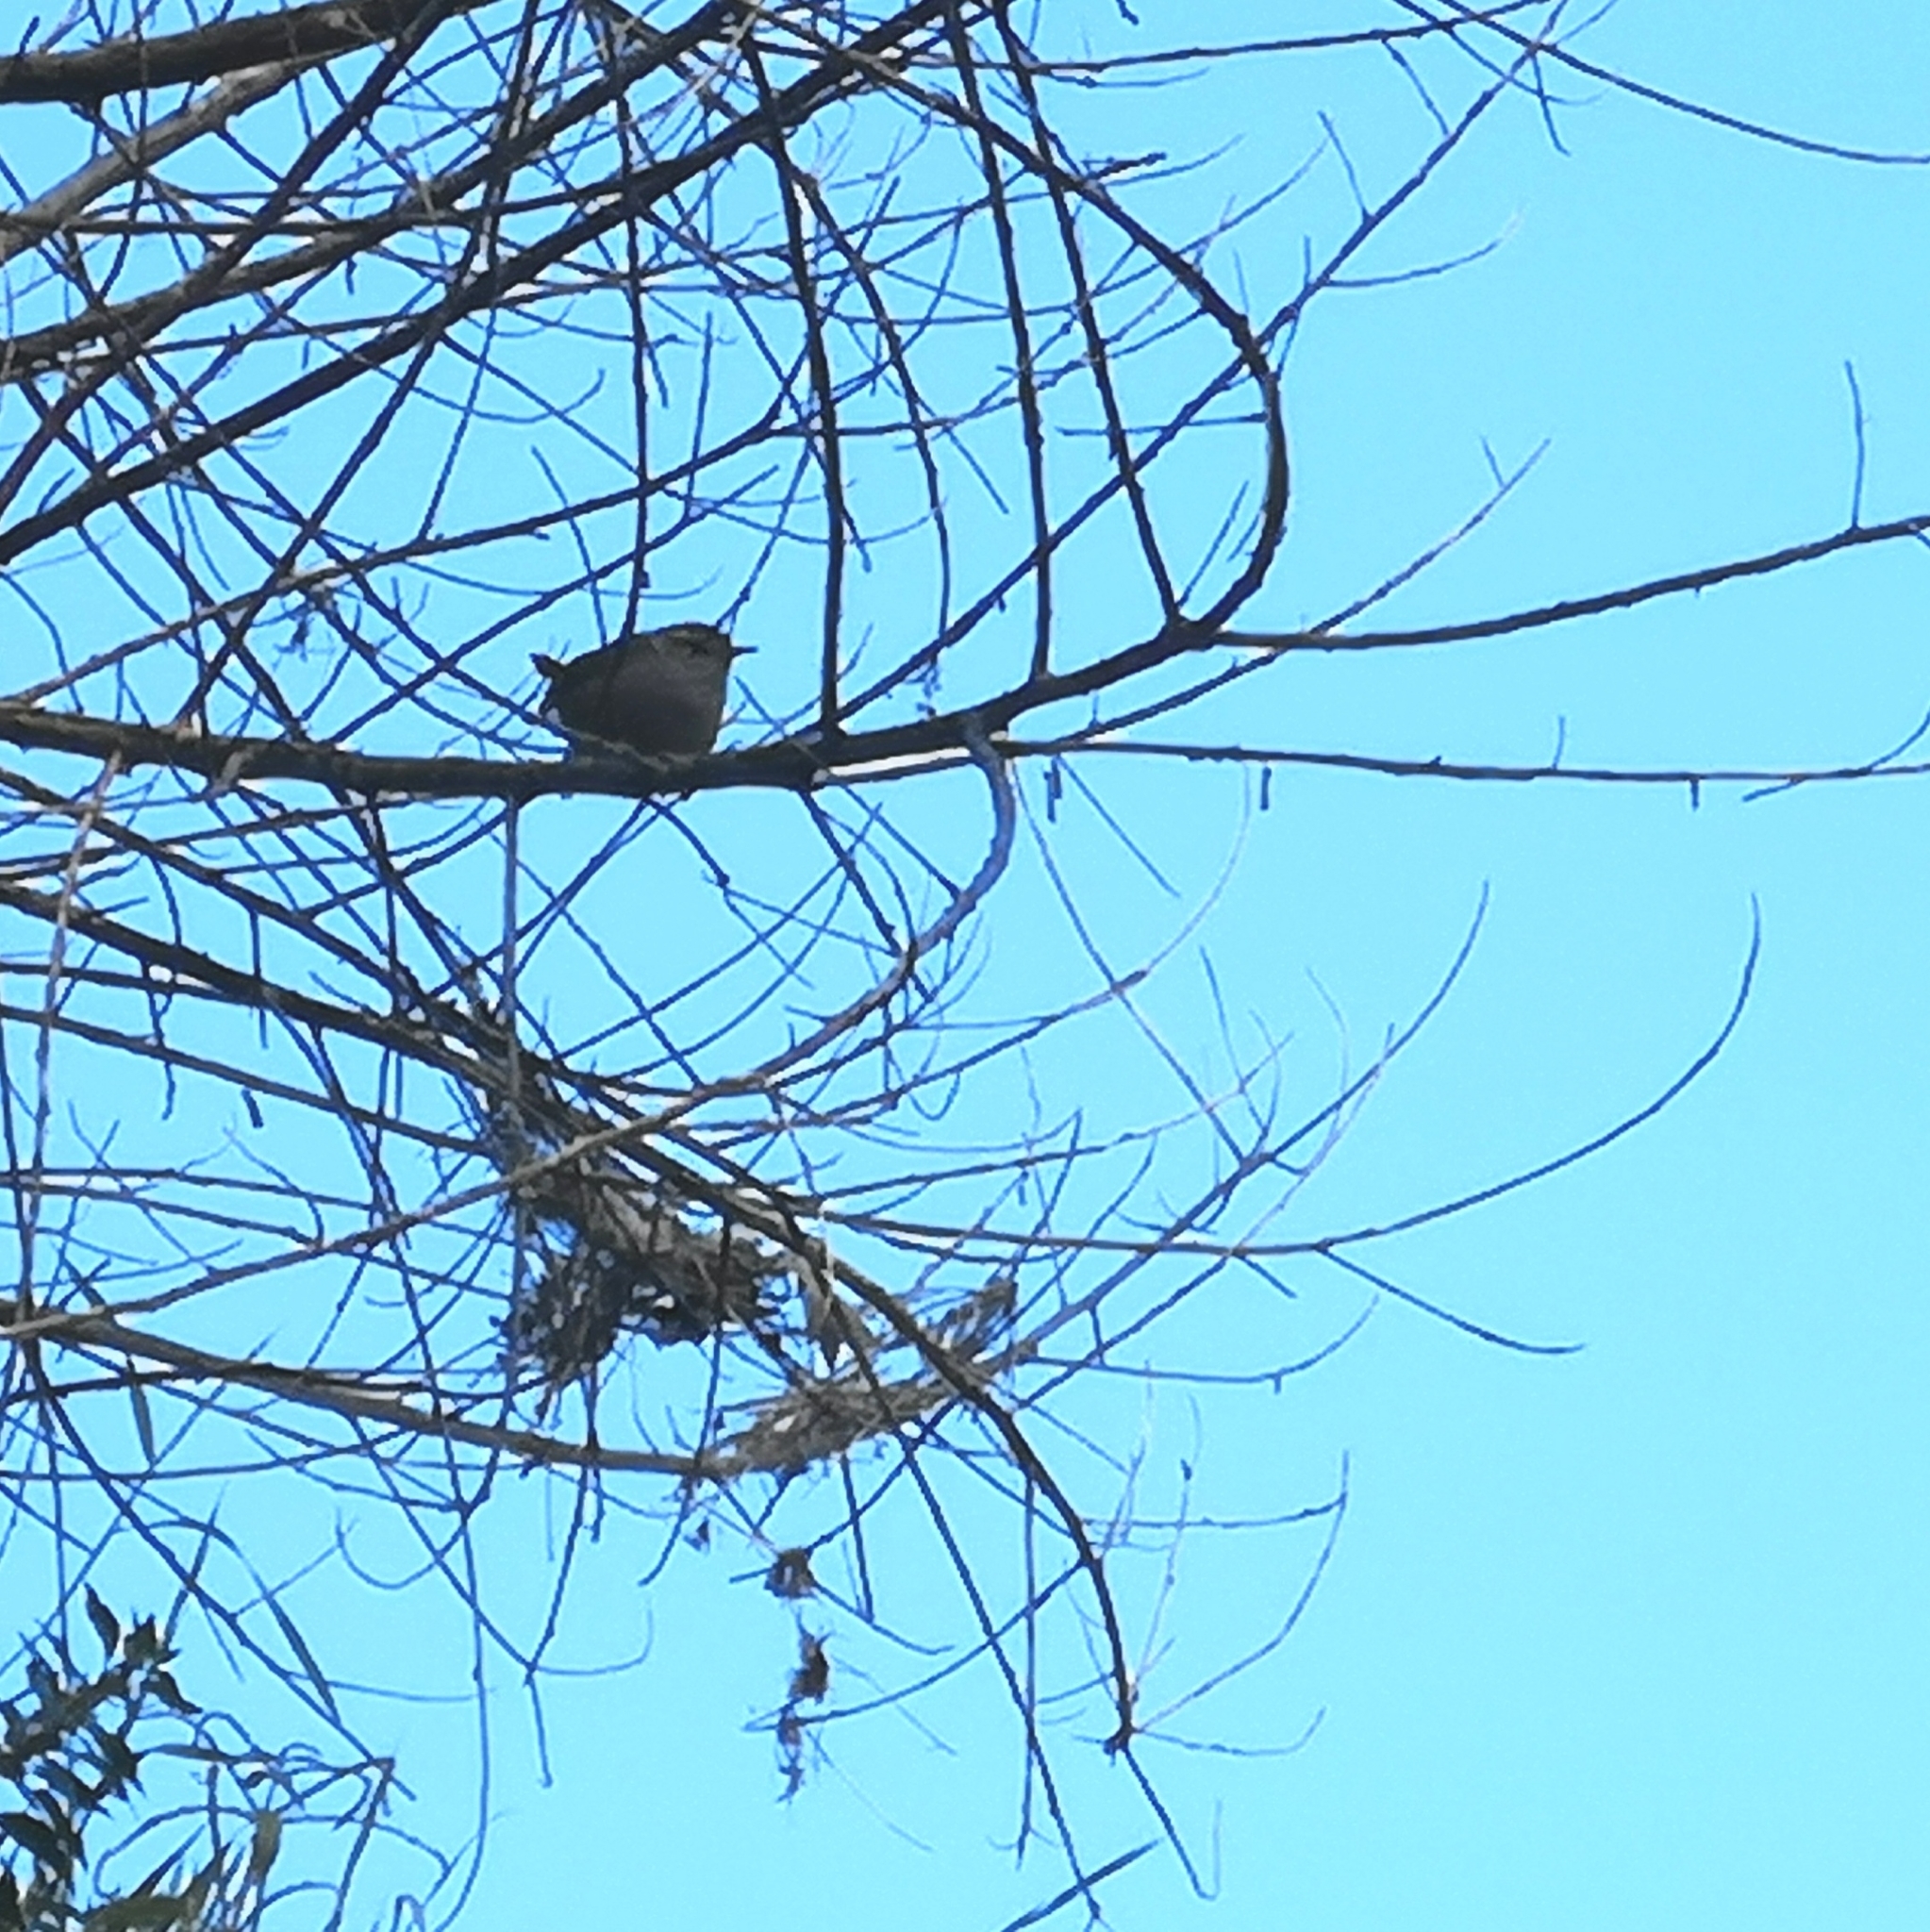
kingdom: Animalia
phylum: Chordata
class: Aves
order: Passeriformes
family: Troglodytidae
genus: Troglodytes
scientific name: Troglodytes troglodytes
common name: Eurasian wren
